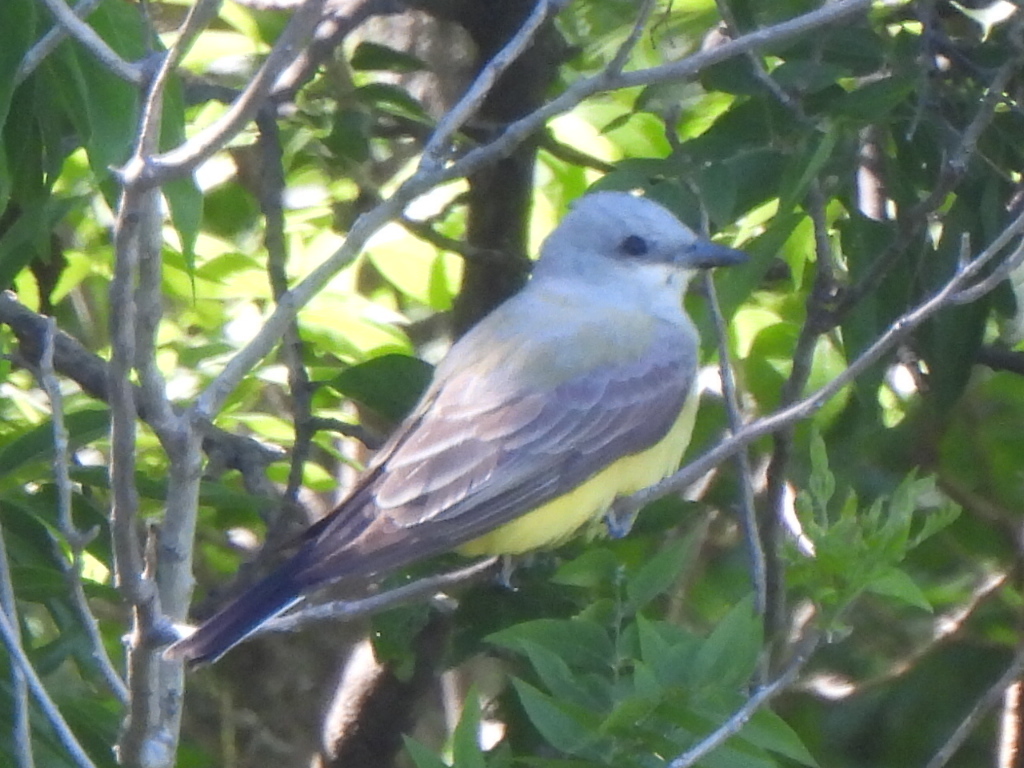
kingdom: Animalia
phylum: Chordata
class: Aves
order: Passeriformes
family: Tyrannidae
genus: Tyrannus
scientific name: Tyrannus verticalis
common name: Western kingbird
